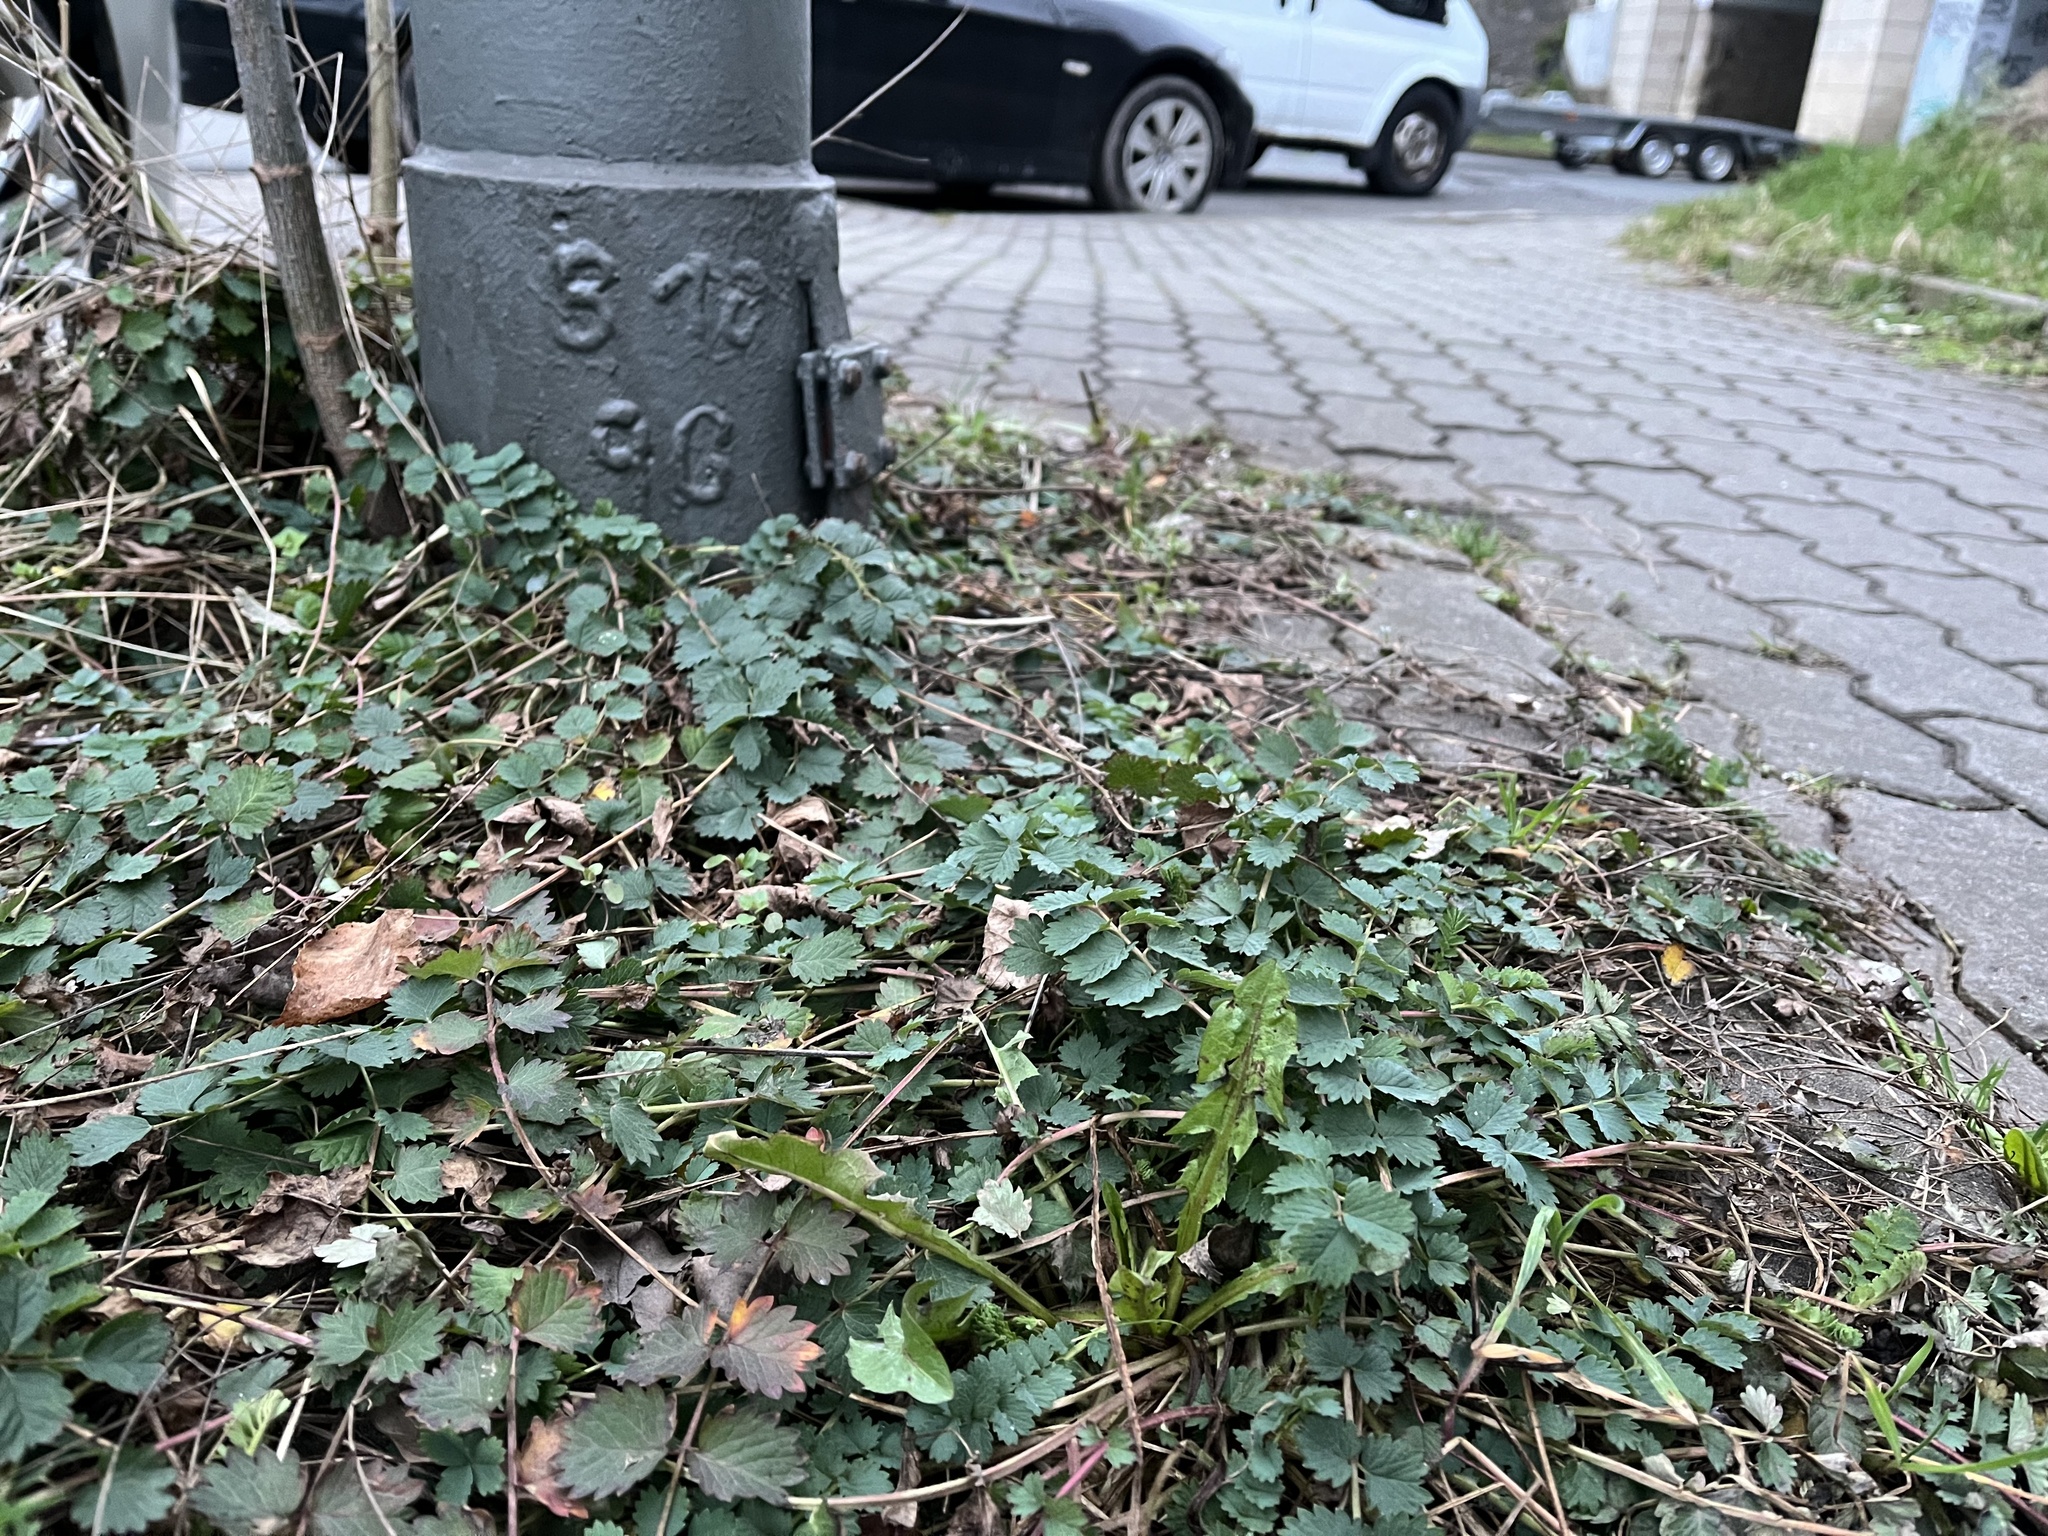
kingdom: Plantae
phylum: Tracheophyta
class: Magnoliopsida
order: Rosales
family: Rosaceae
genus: Poterium
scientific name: Poterium sanguisorba
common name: Salad burnet
